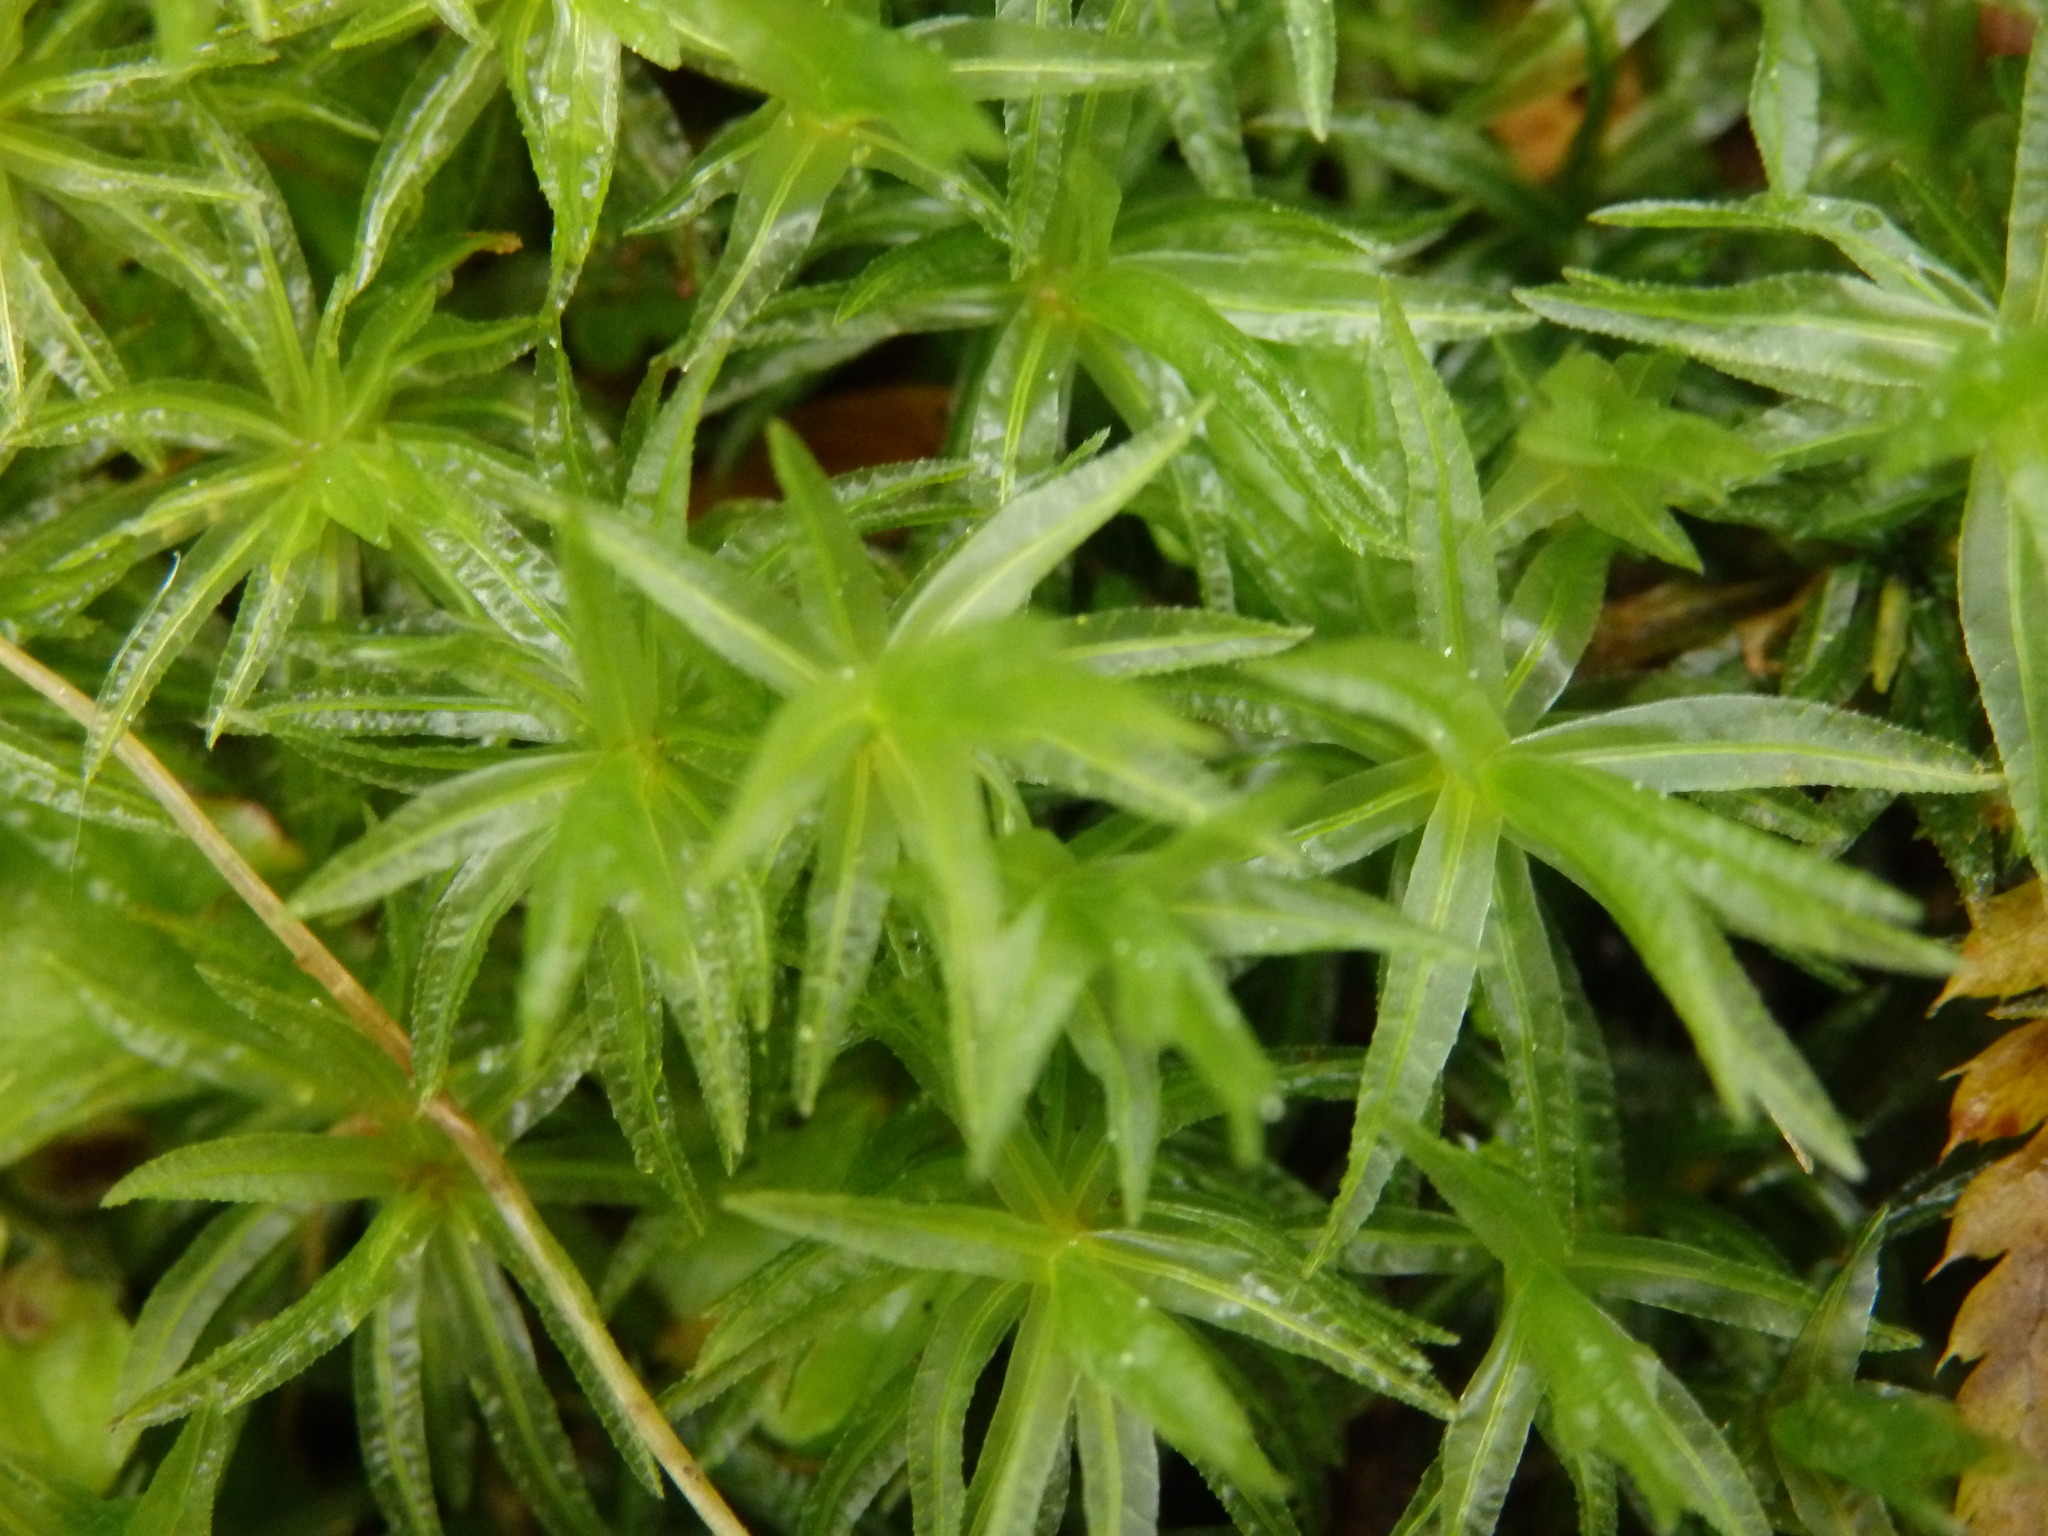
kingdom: Plantae
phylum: Bryophyta
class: Polytrichopsida
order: Polytrichales
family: Polytrichaceae
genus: Atrichum
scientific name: Atrichum undulatum
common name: Common smoothcap
